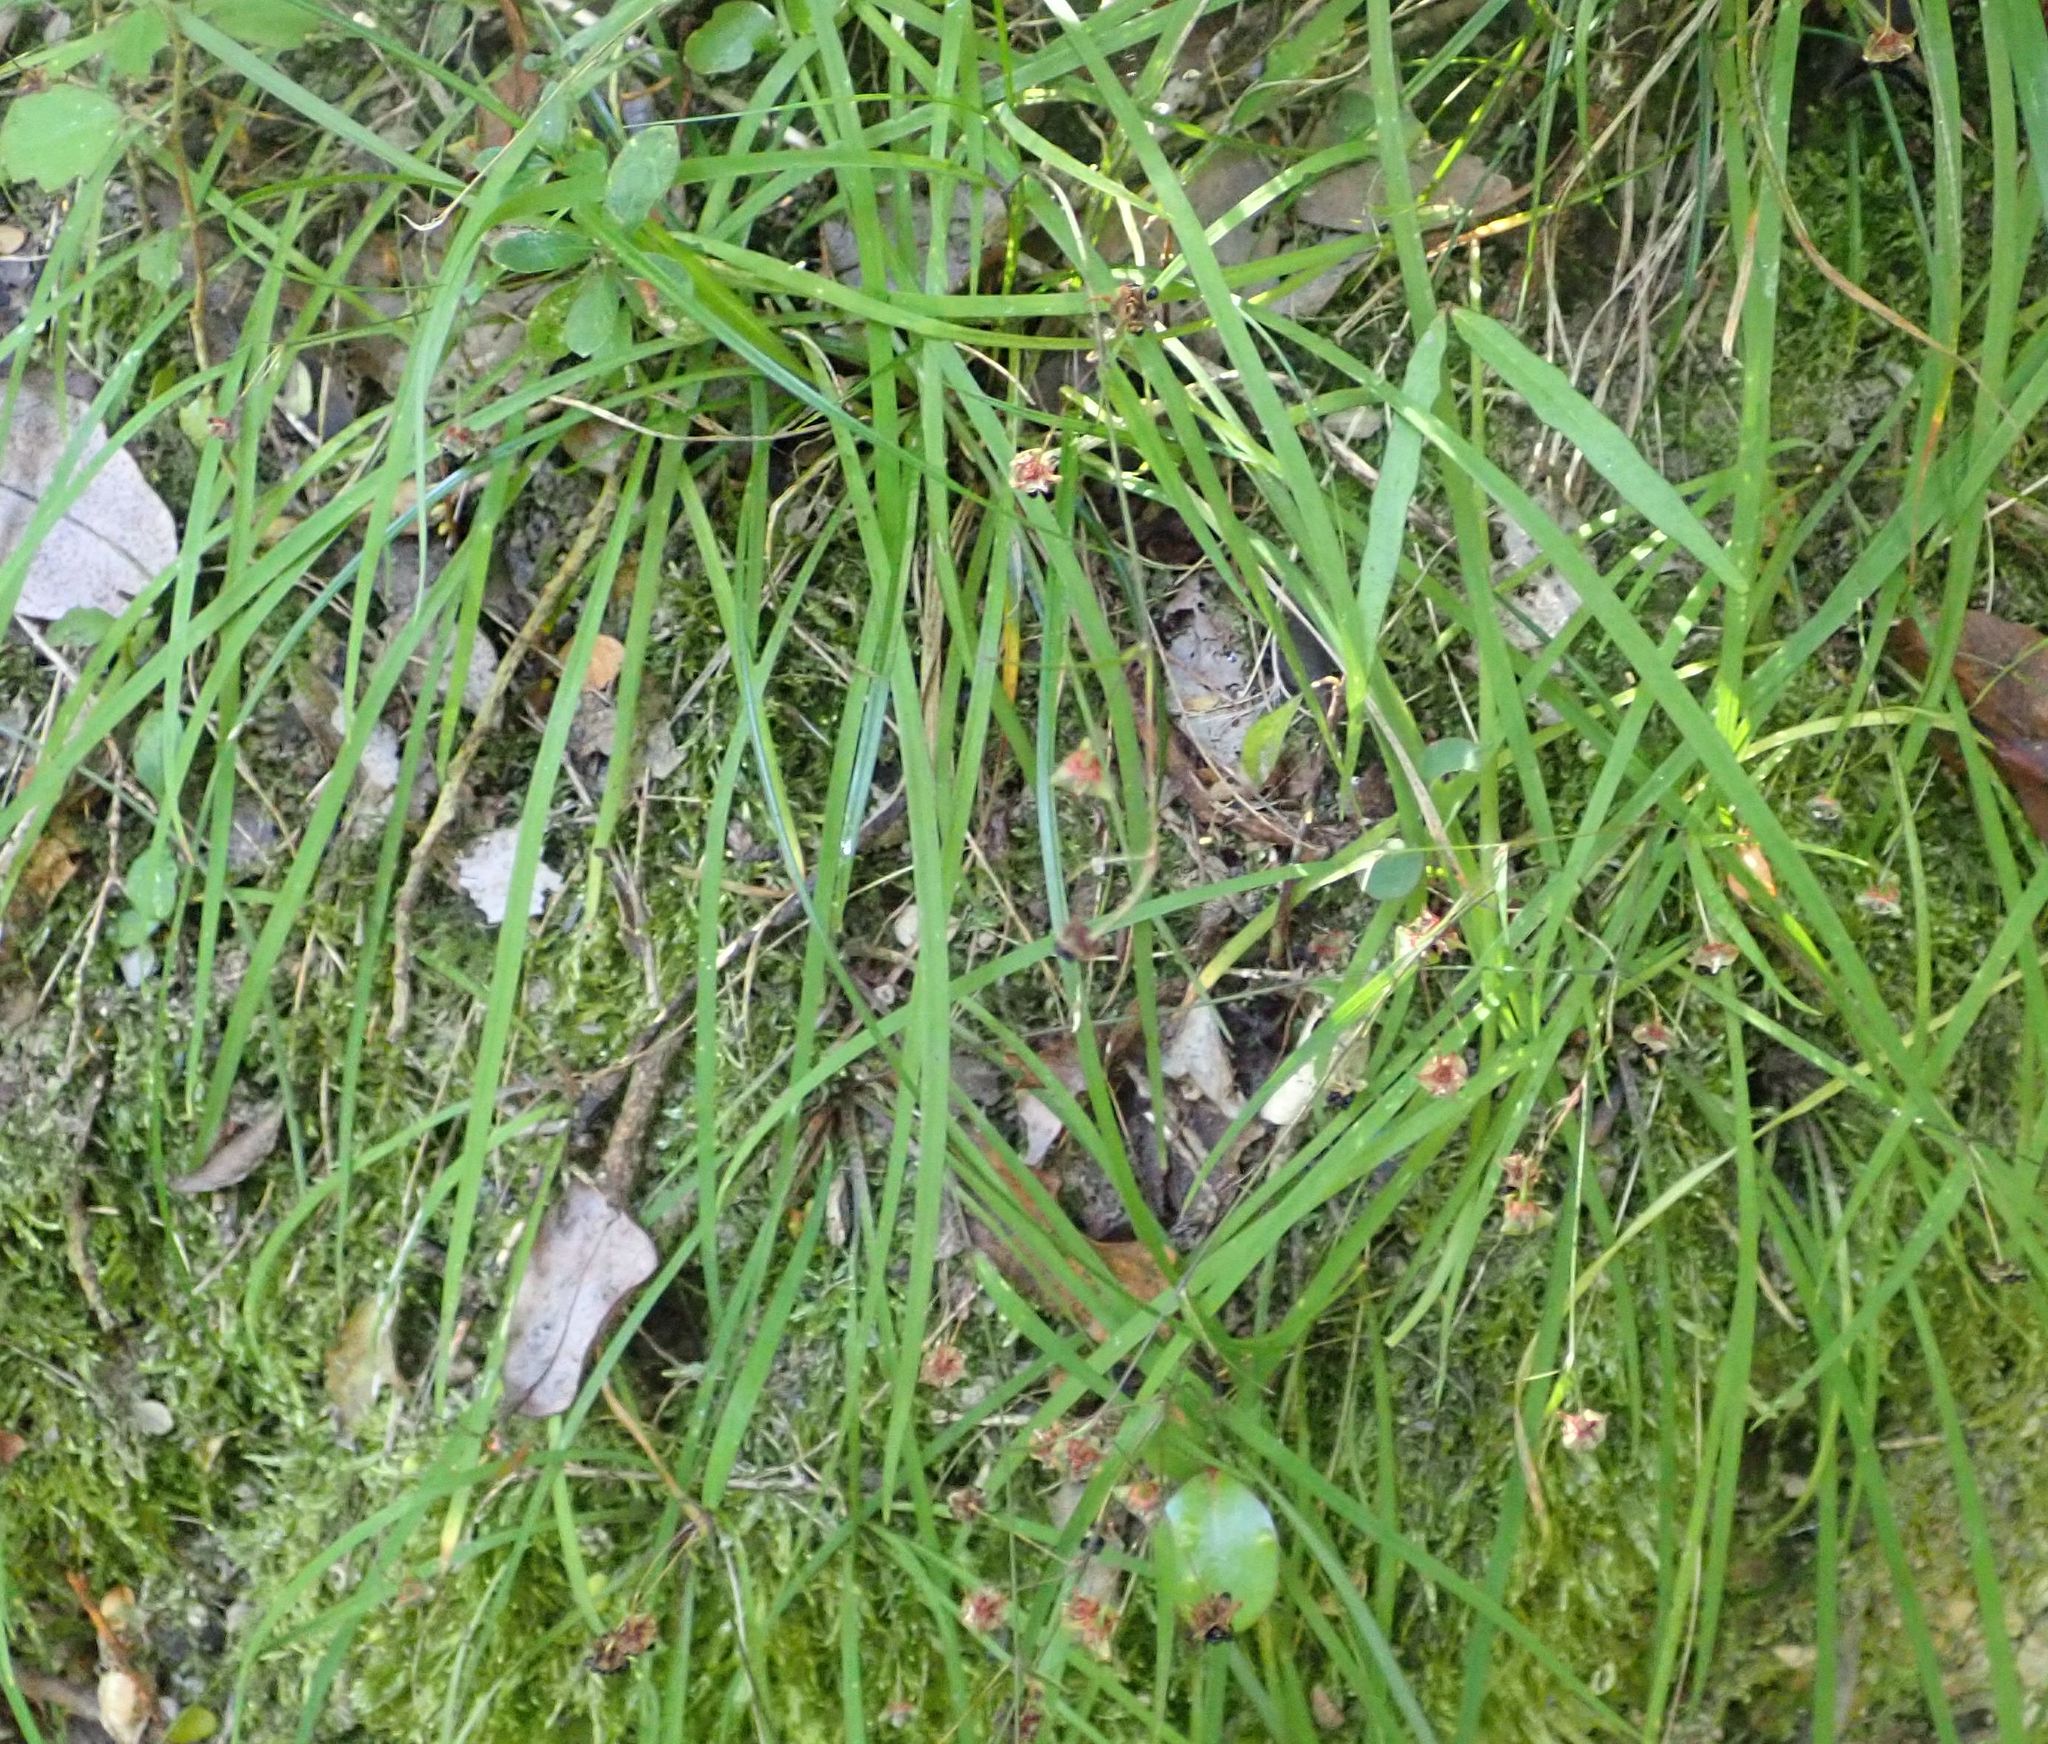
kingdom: Plantae
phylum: Tracheophyta
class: Liliopsida
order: Asparagales
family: Asparagaceae
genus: Arthropodium
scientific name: Arthropodium candidum
